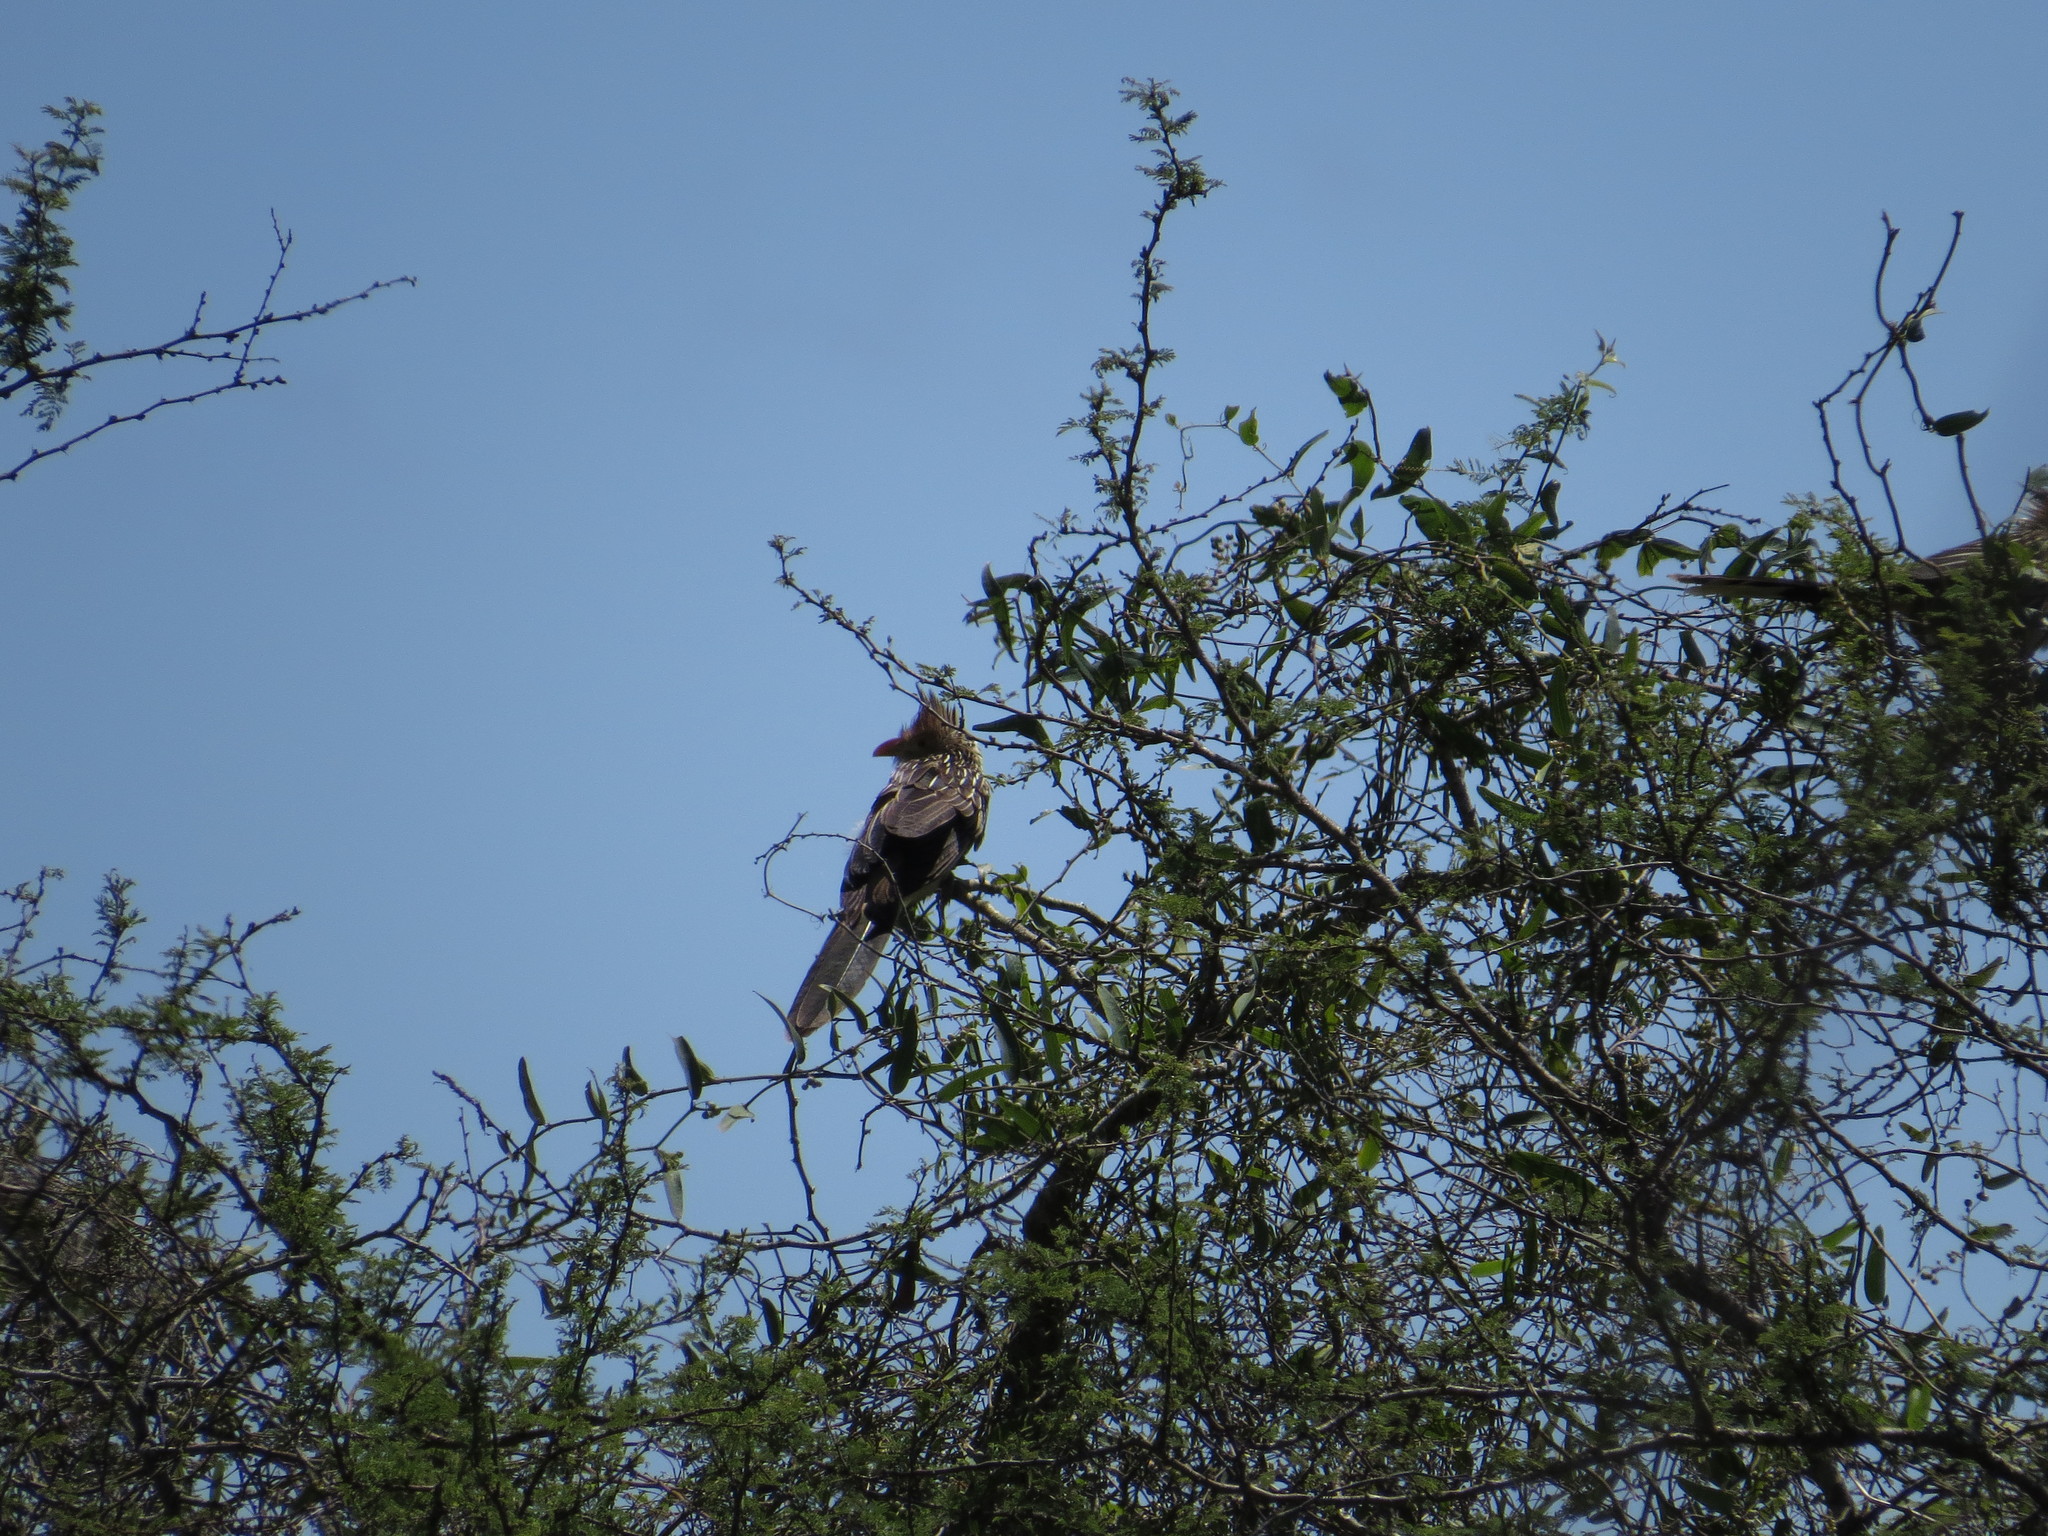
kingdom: Animalia
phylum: Chordata
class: Aves
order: Cuculiformes
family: Cuculidae
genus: Guira
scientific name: Guira guira
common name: Guira cuckoo
